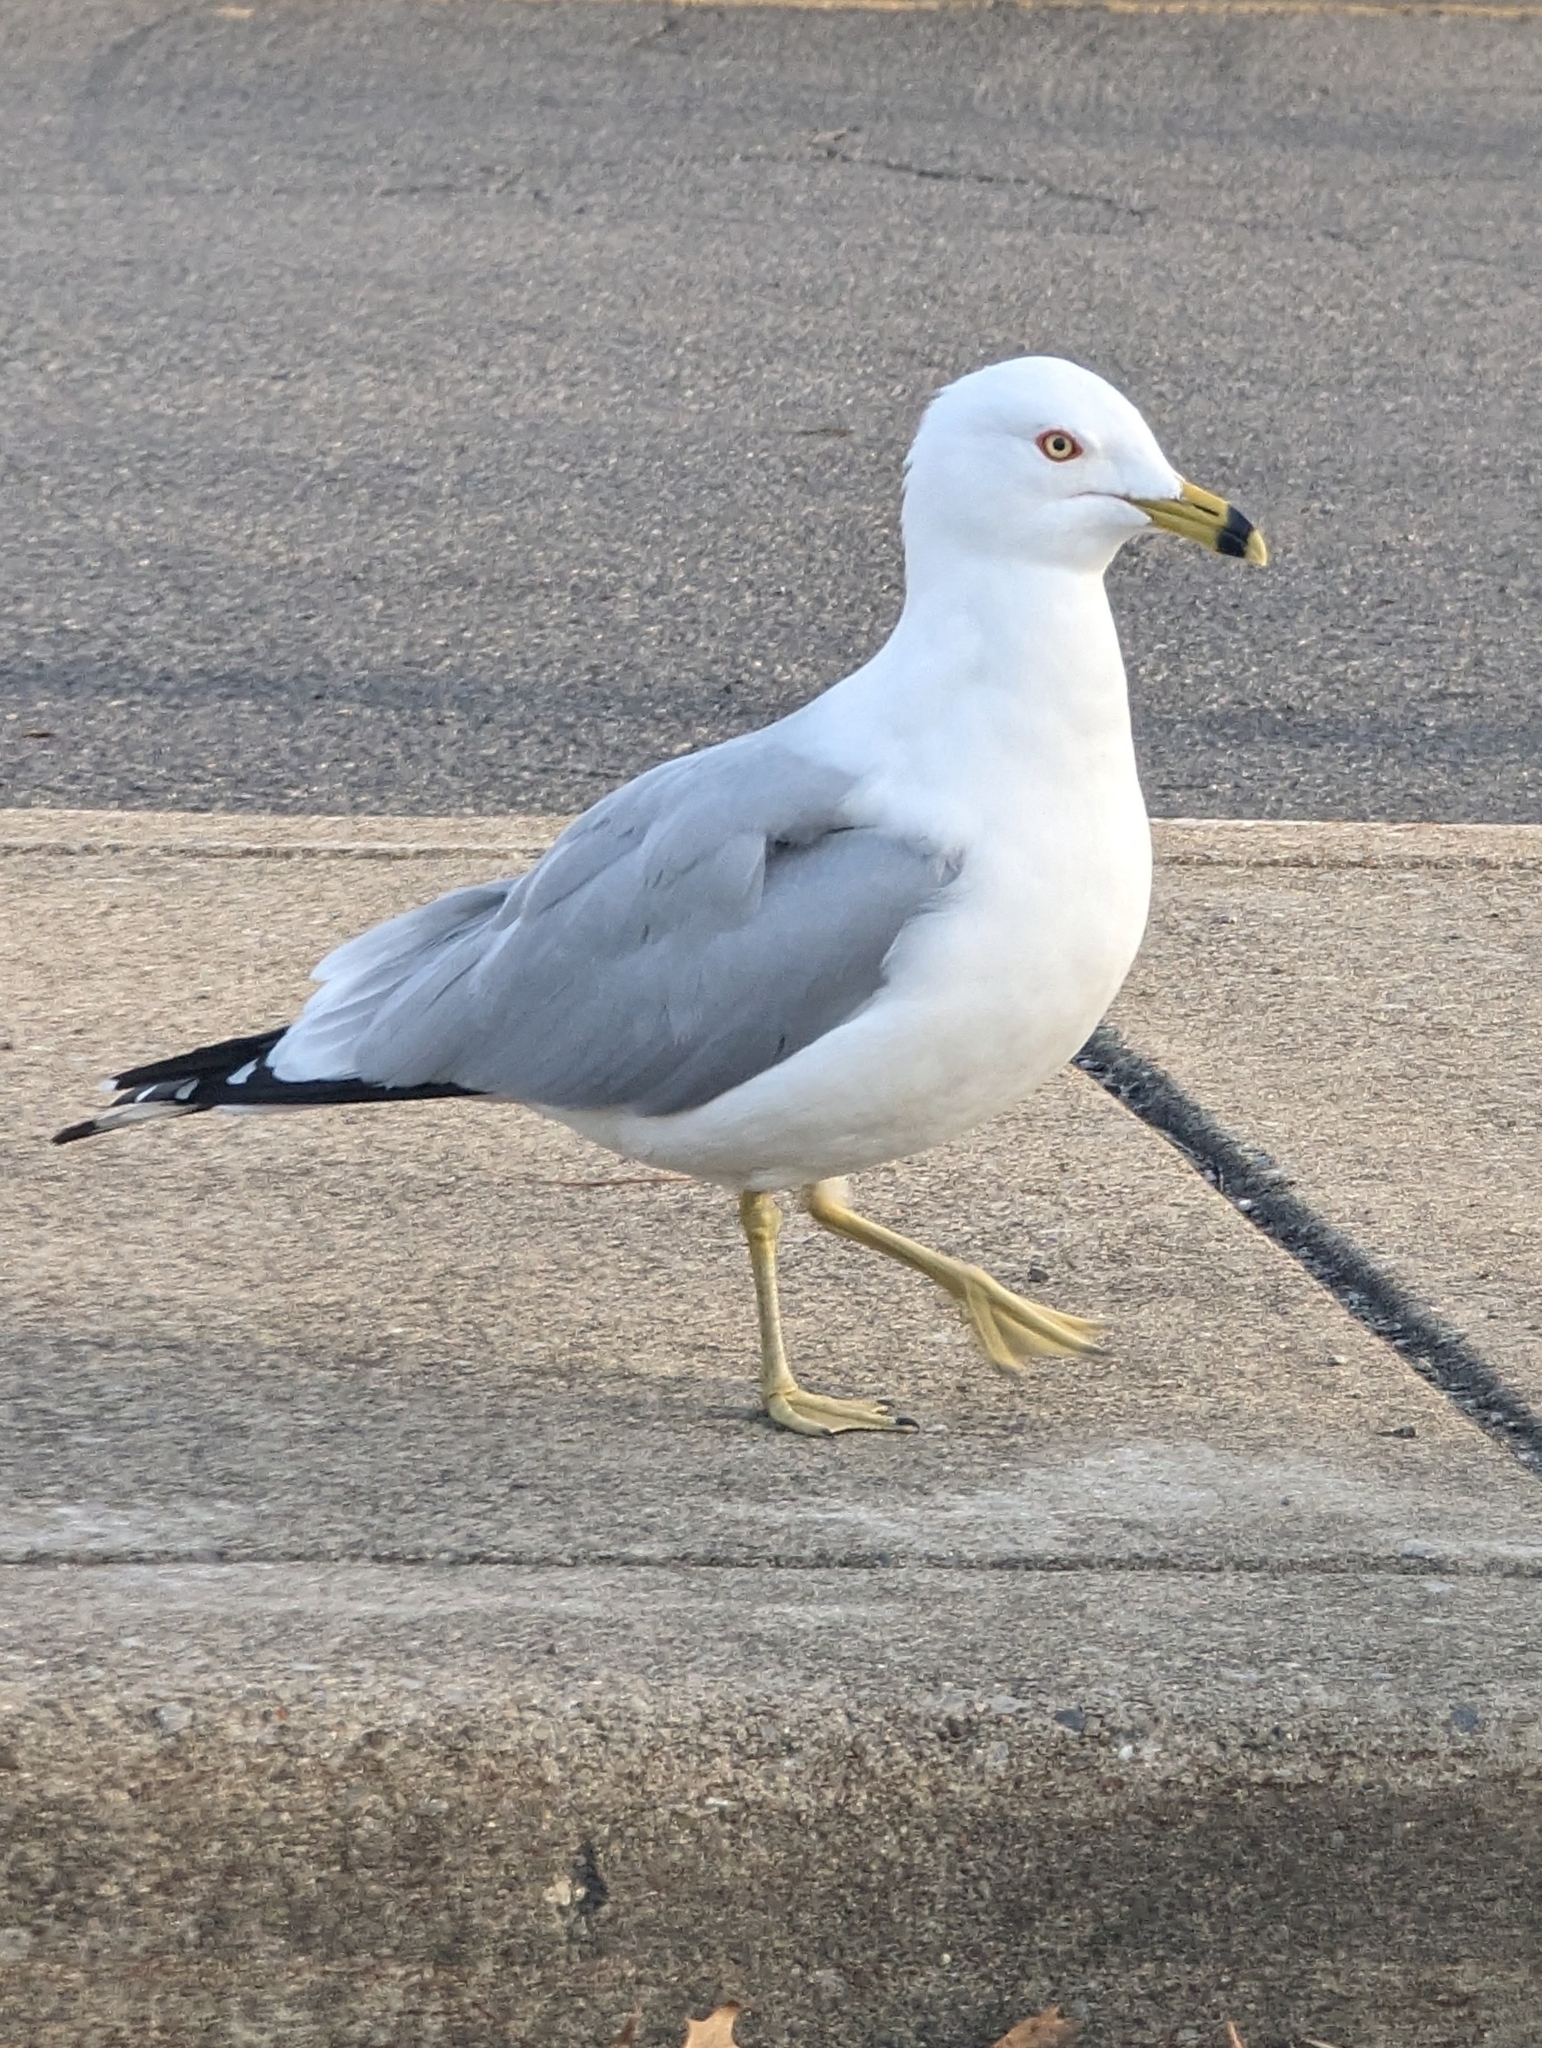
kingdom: Animalia
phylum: Chordata
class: Aves
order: Charadriiformes
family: Laridae
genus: Larus
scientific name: Larus delawarensis
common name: Ring-billed gull
